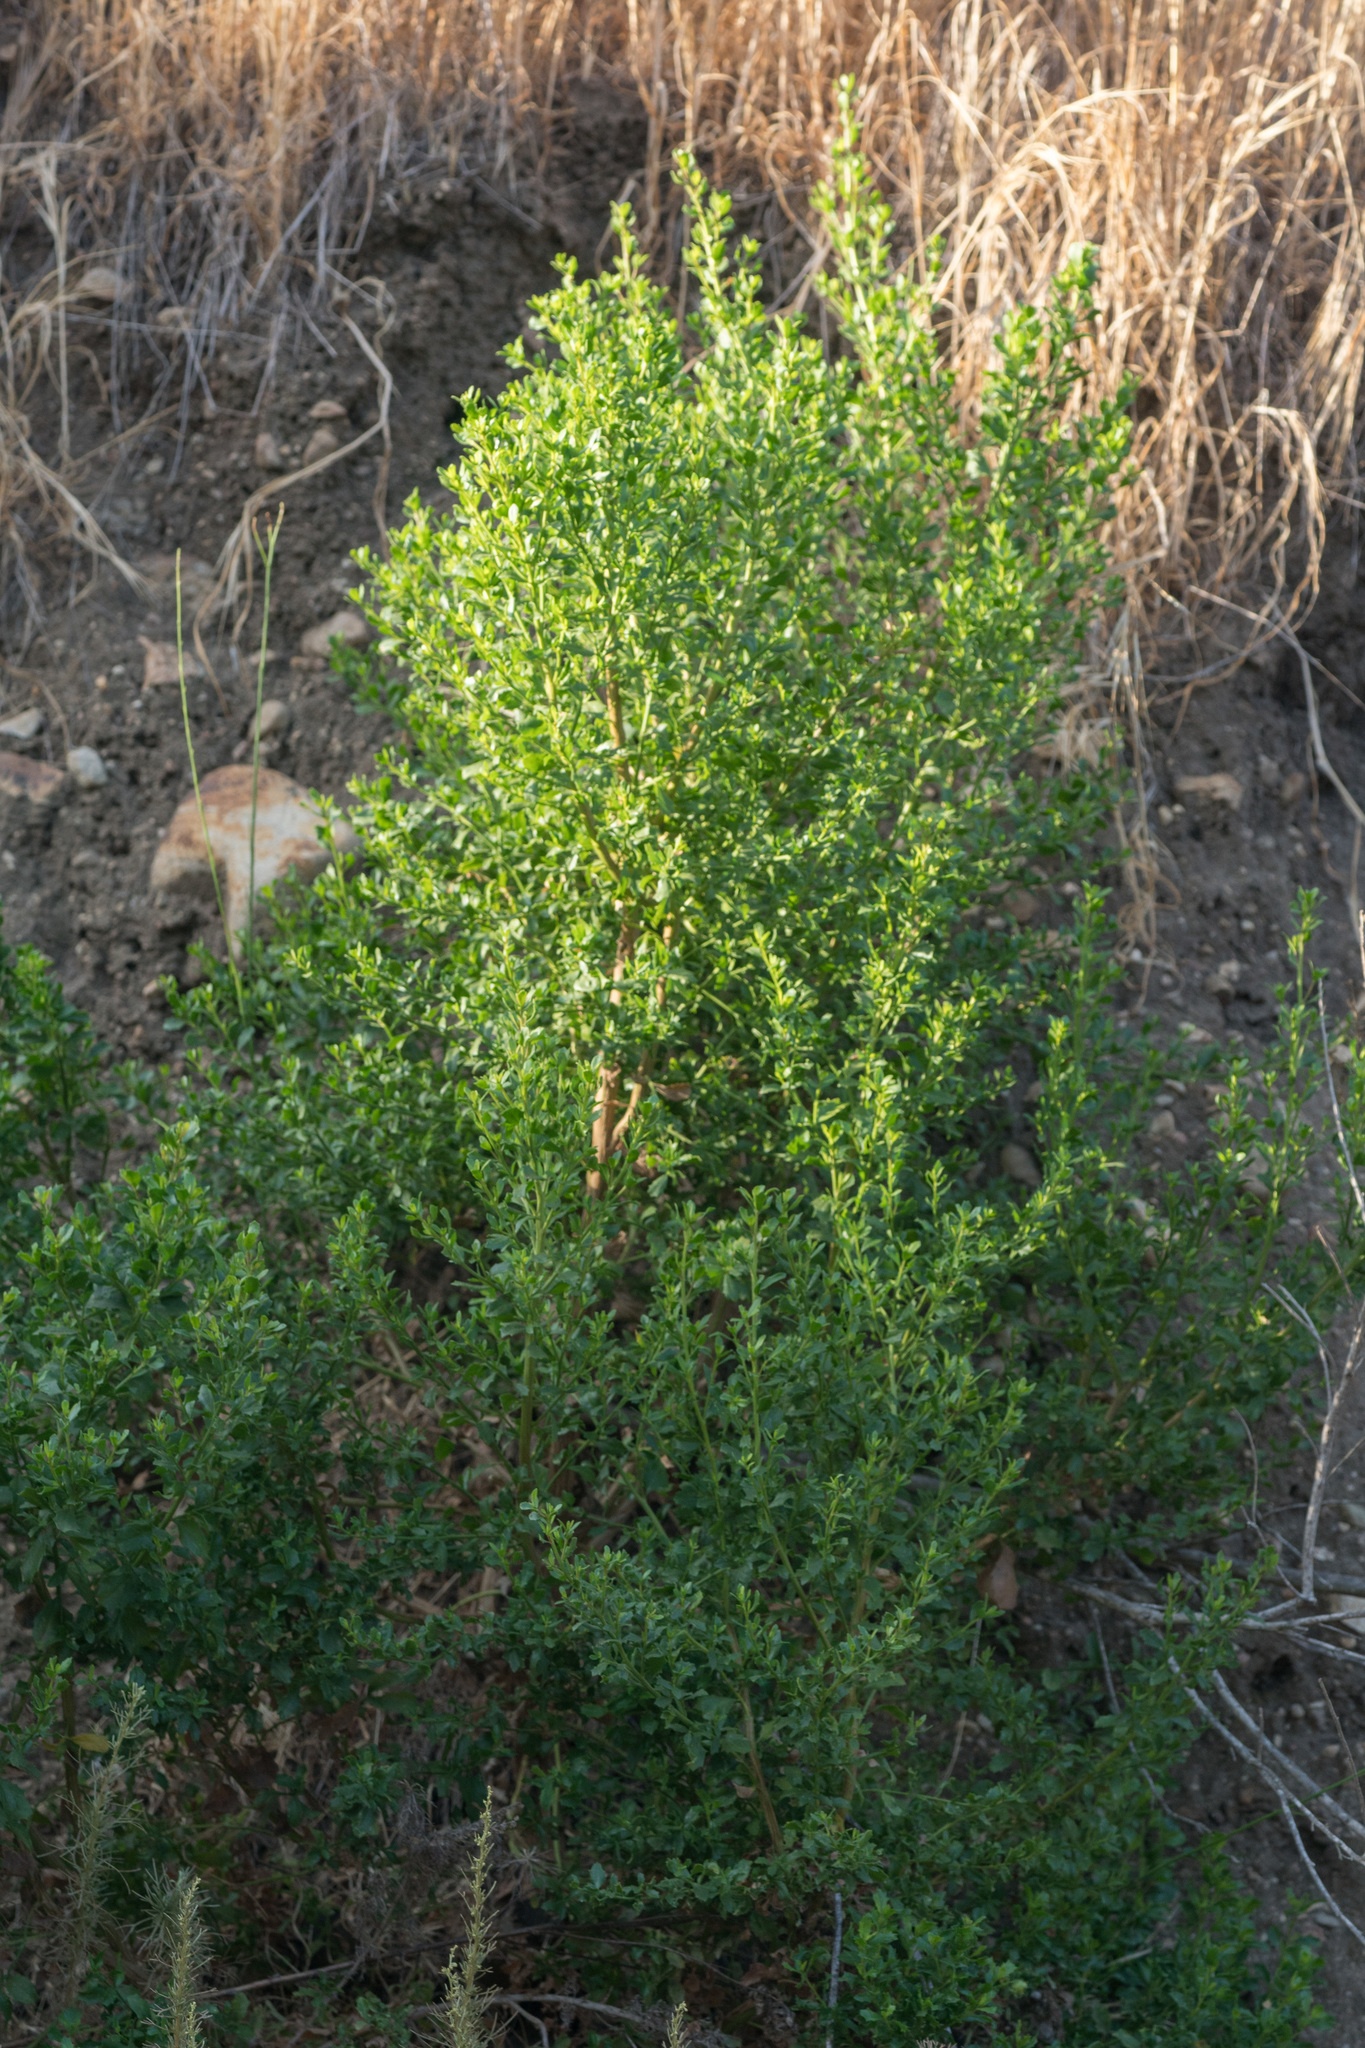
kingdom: Plantae
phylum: Tracheophyta
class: Magnoliopsida
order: Asterales
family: Asteraceae
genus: Baccharis
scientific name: Baccharis pilularis
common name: Coyotebrush
